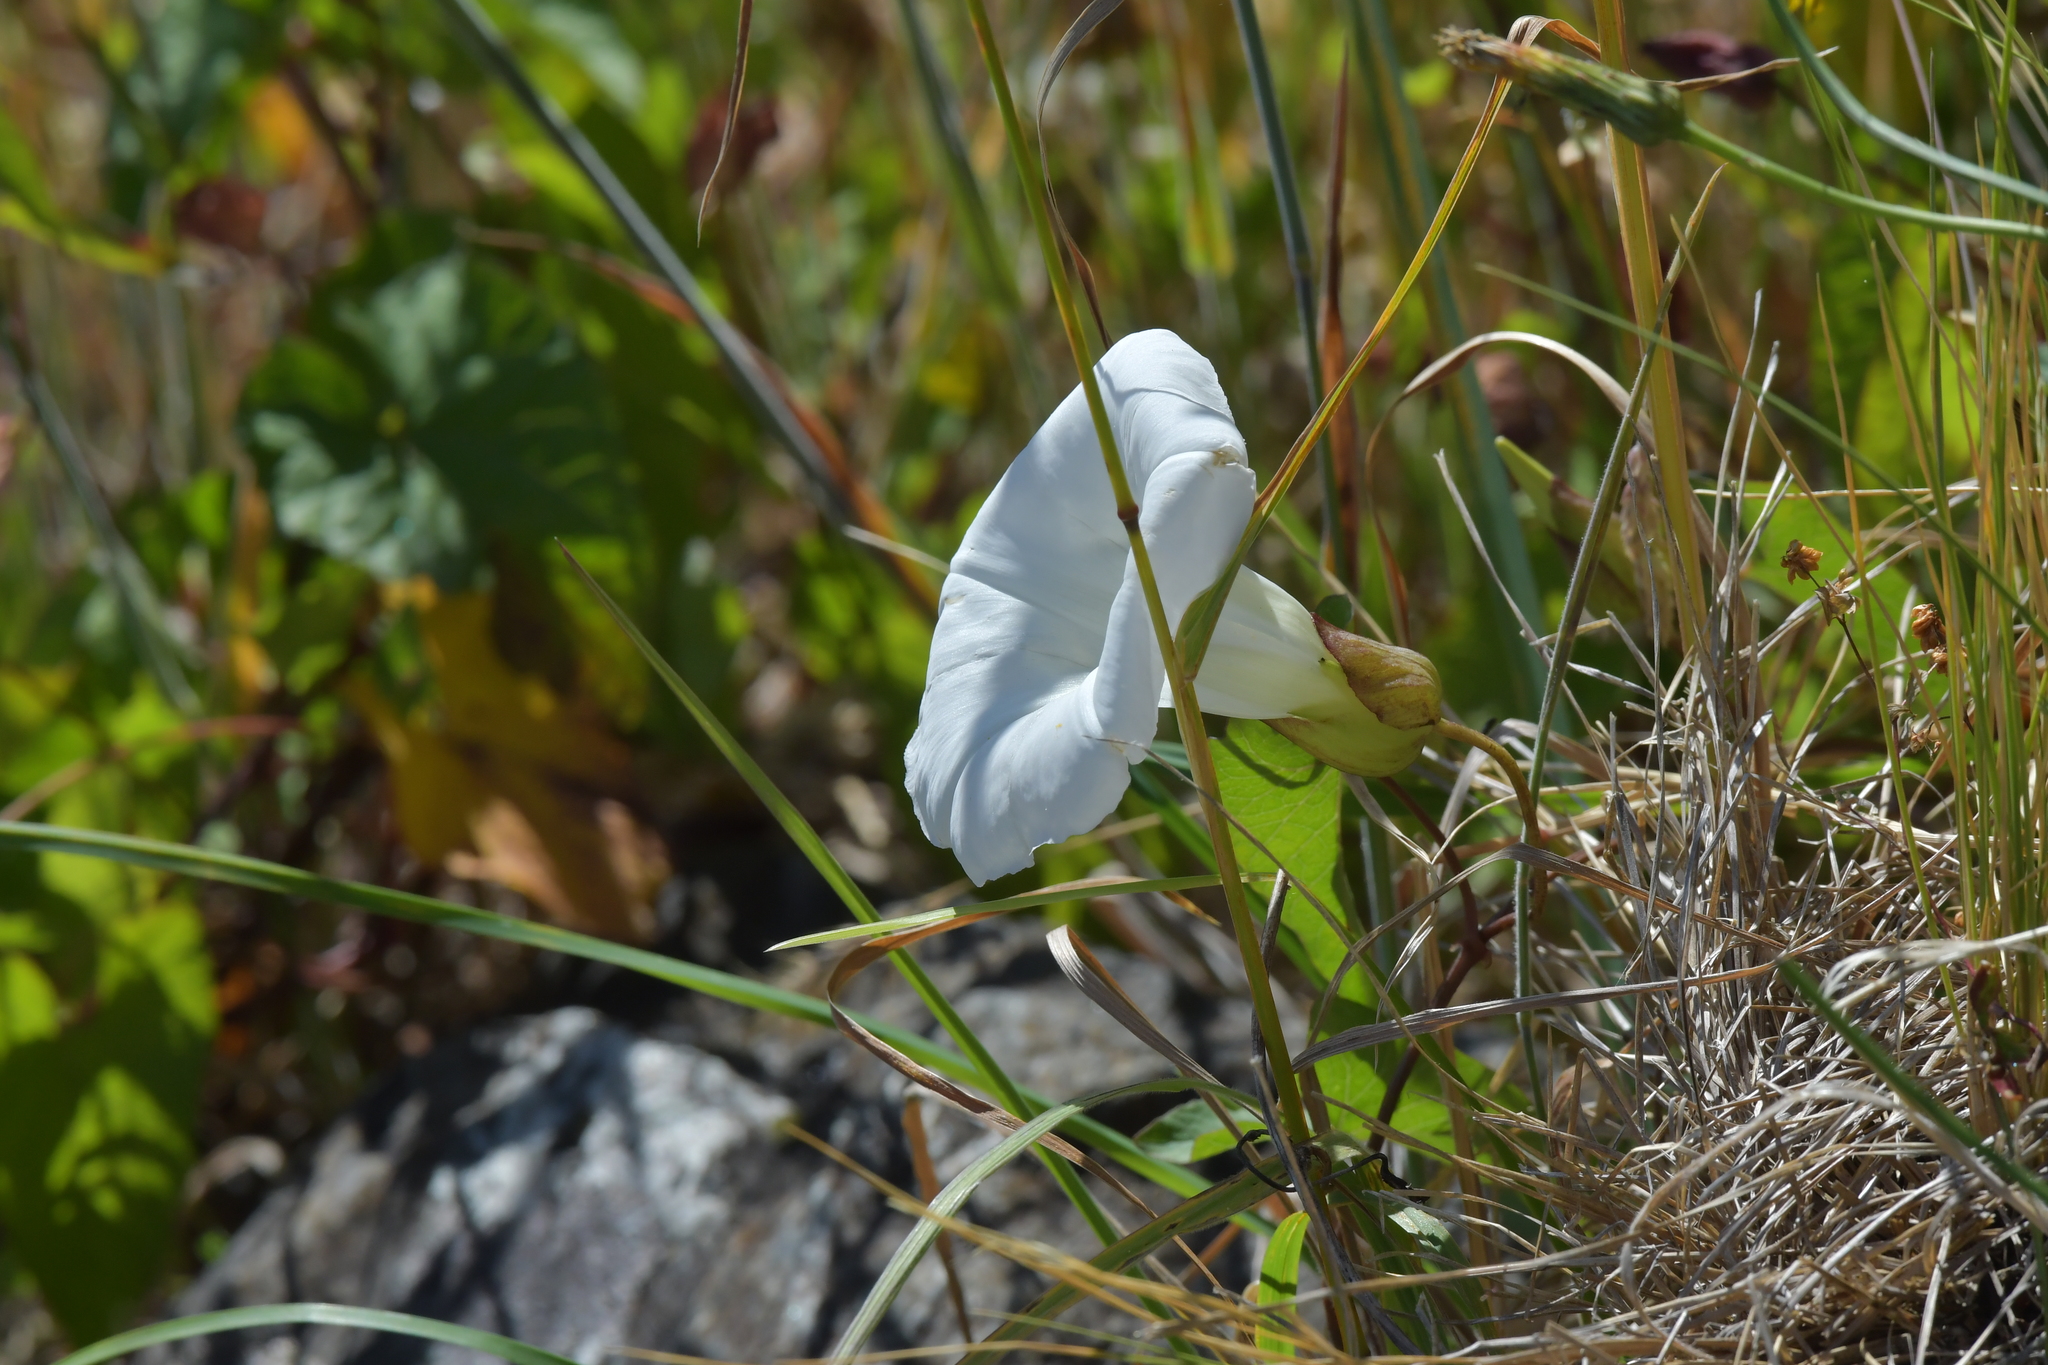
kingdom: Plantae
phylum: Tracheophyta
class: Magnoliopsida
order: Solanales
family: Convolvulaceae
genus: Calystegia
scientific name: Calystegia silvatica
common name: Large bindweed
